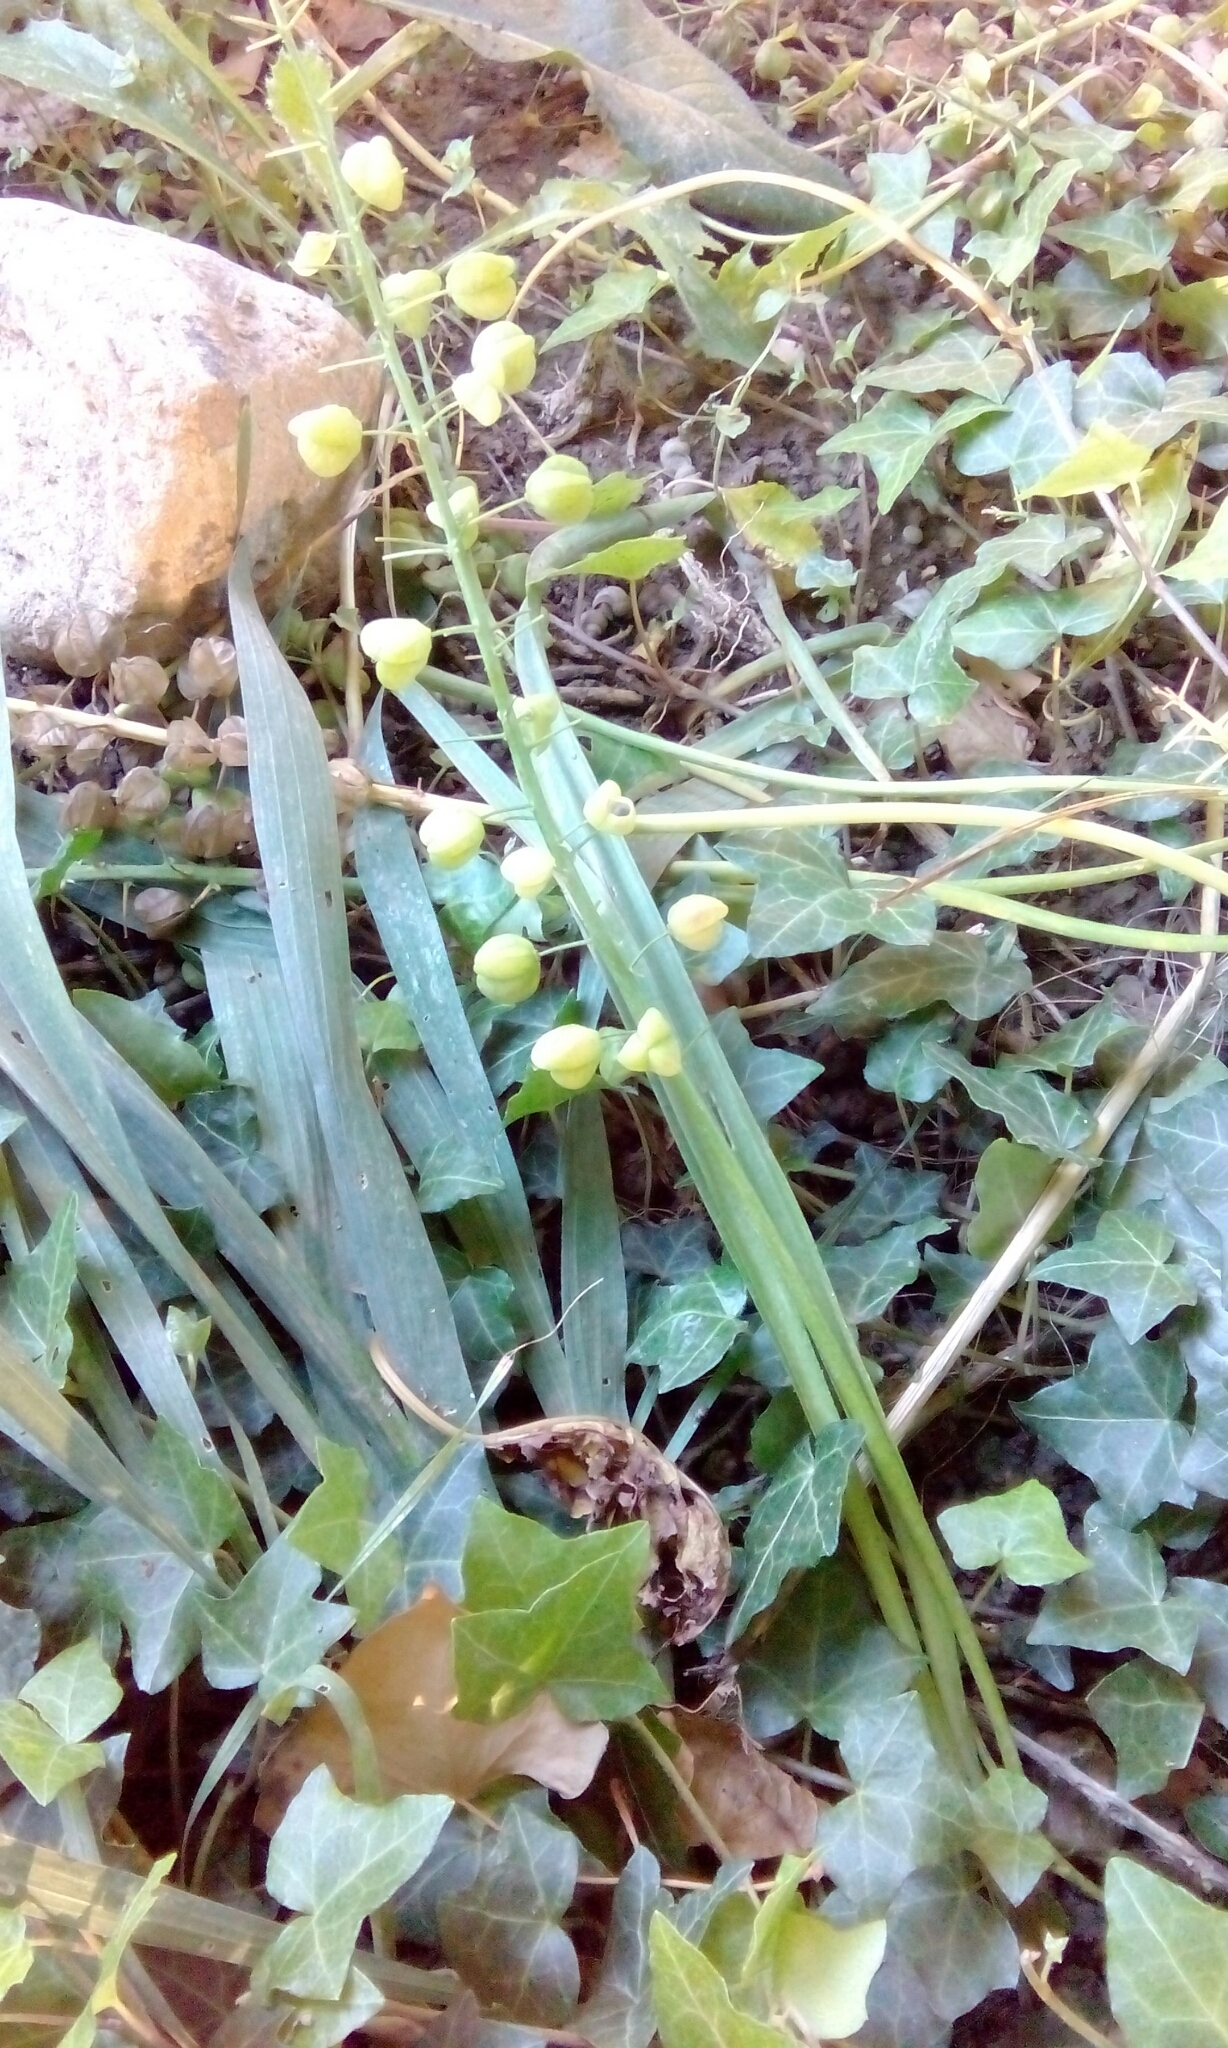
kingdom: Plantae
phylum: Tracheophyta
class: Liliopsida
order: Asparagales
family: Asparagaceae
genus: Muscari
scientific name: Muscari comosum
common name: Tassel hyacinth
